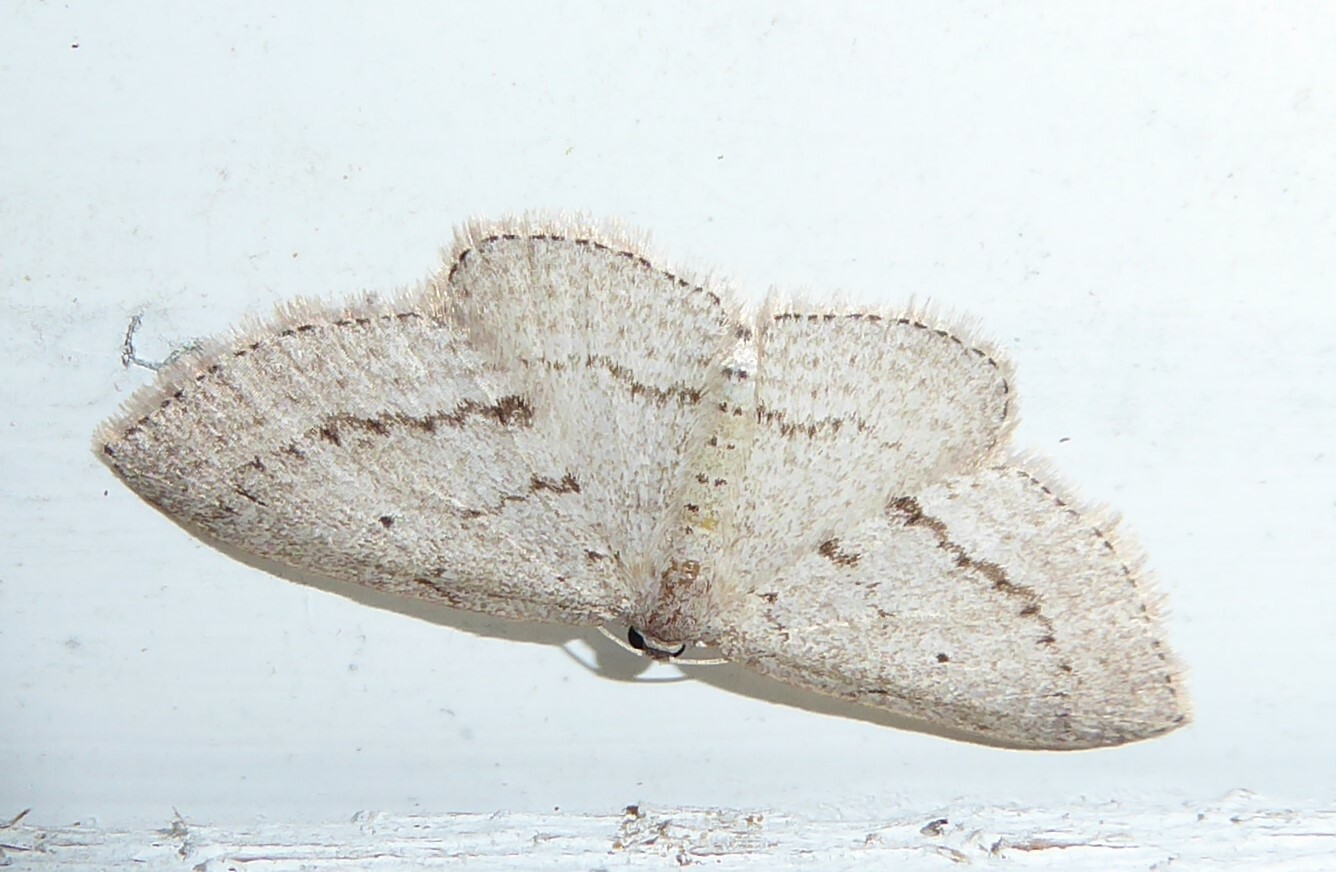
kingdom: Animalia
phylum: Arthropoda
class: Insecta
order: Lepidoptera
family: Geometridae
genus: Poecilasthena
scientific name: Poecilasthena schistaria
